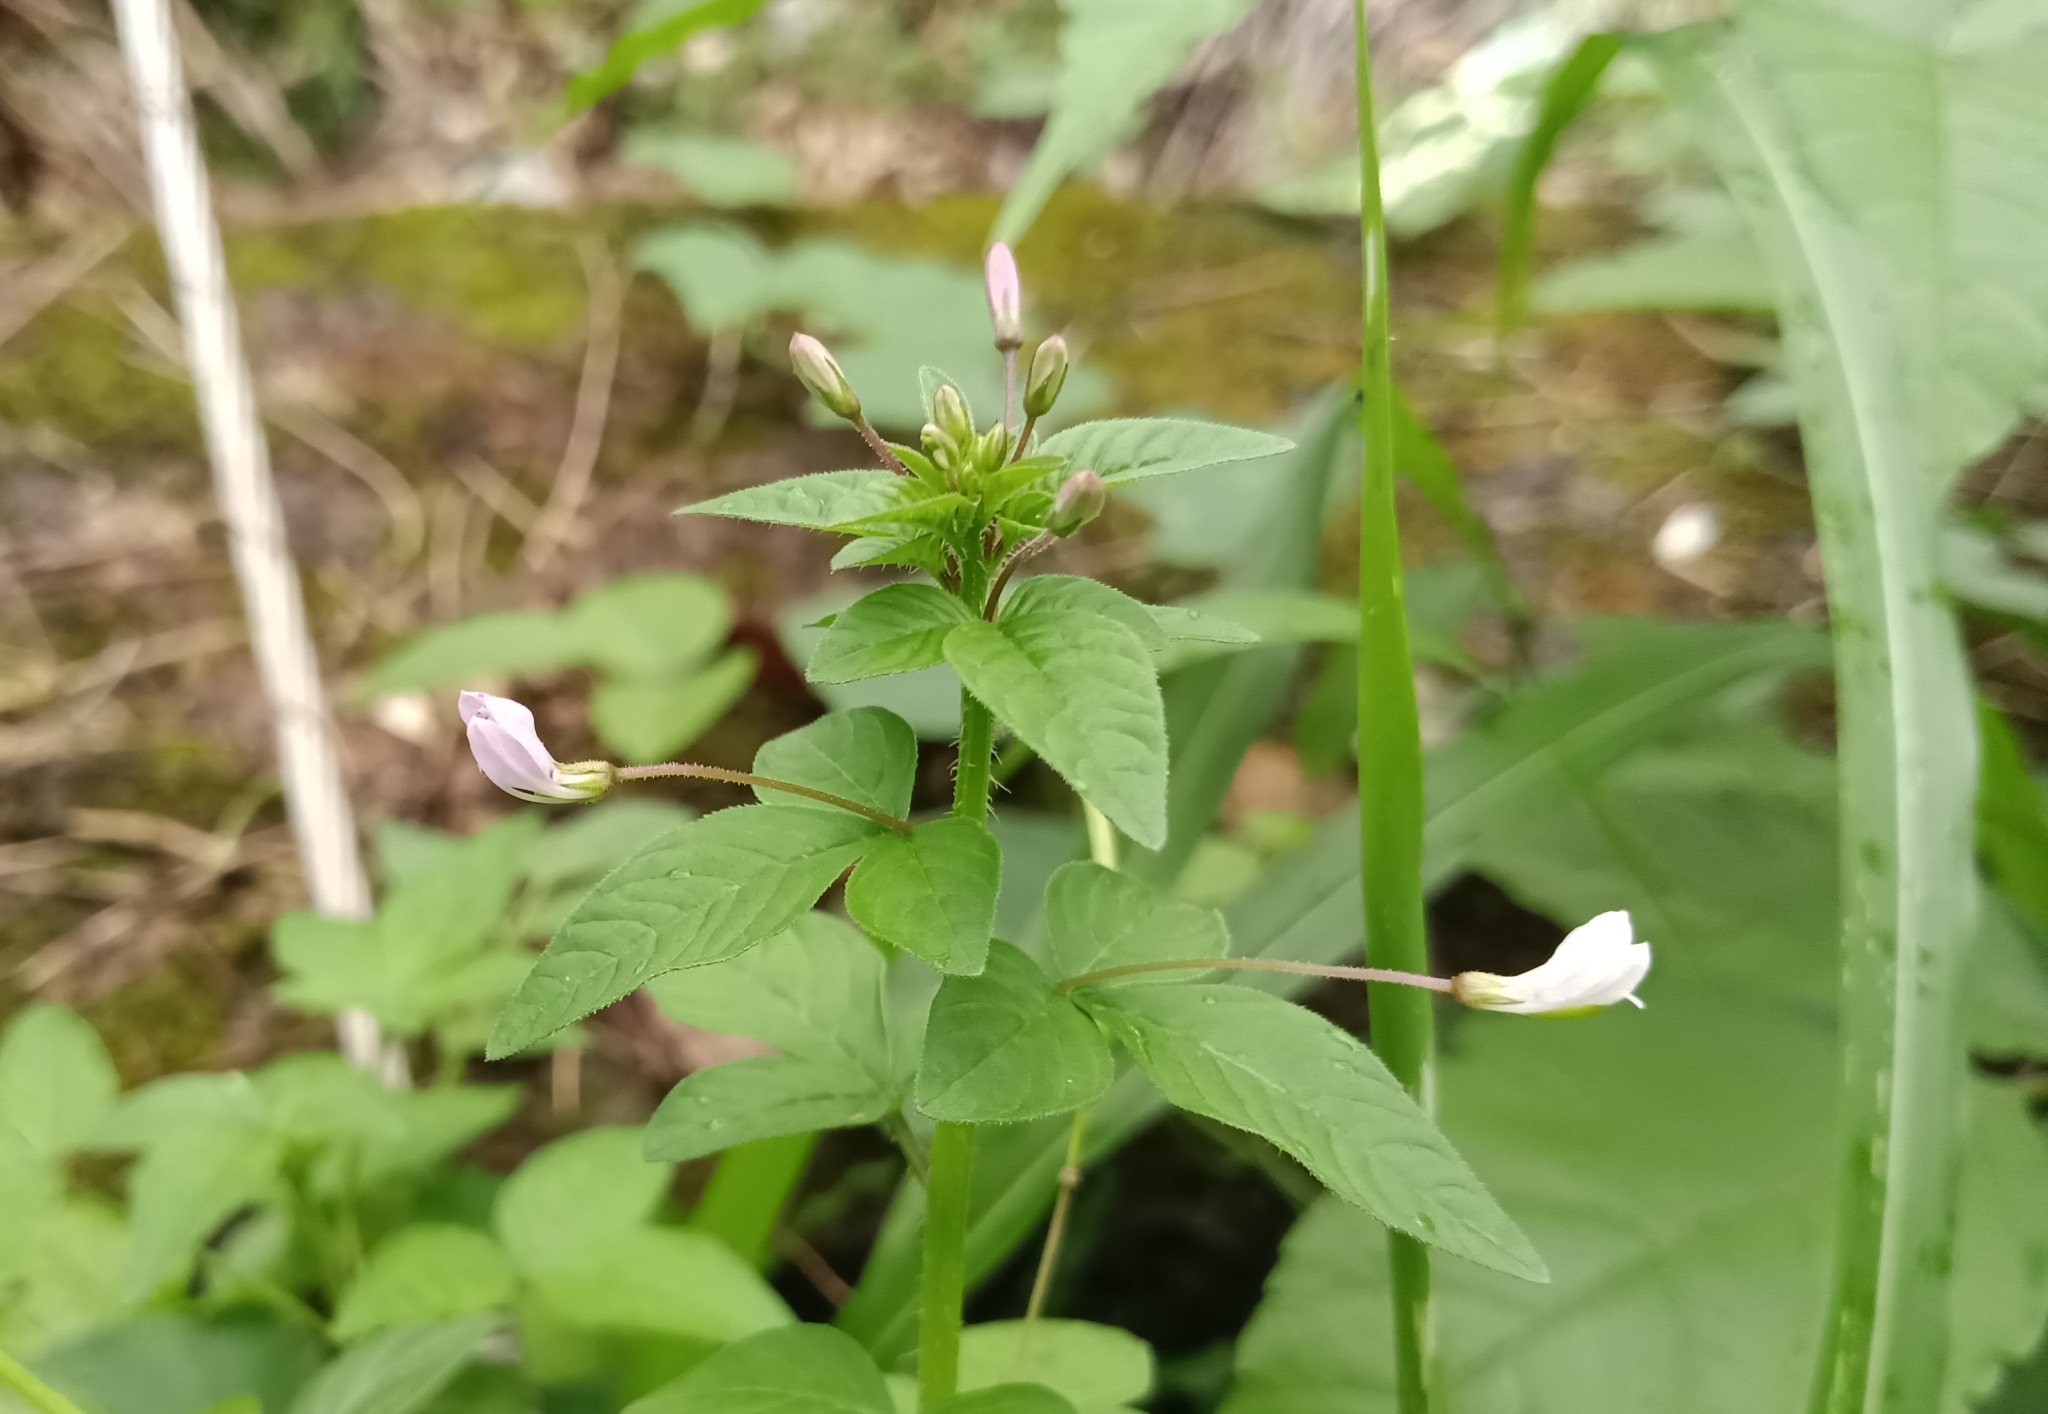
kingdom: Plantae
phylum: Tracheophyta
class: Magnoliopsida
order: Brassicales
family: Cleomaceae
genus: Sieruela
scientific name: Sieruela rutidosperma
